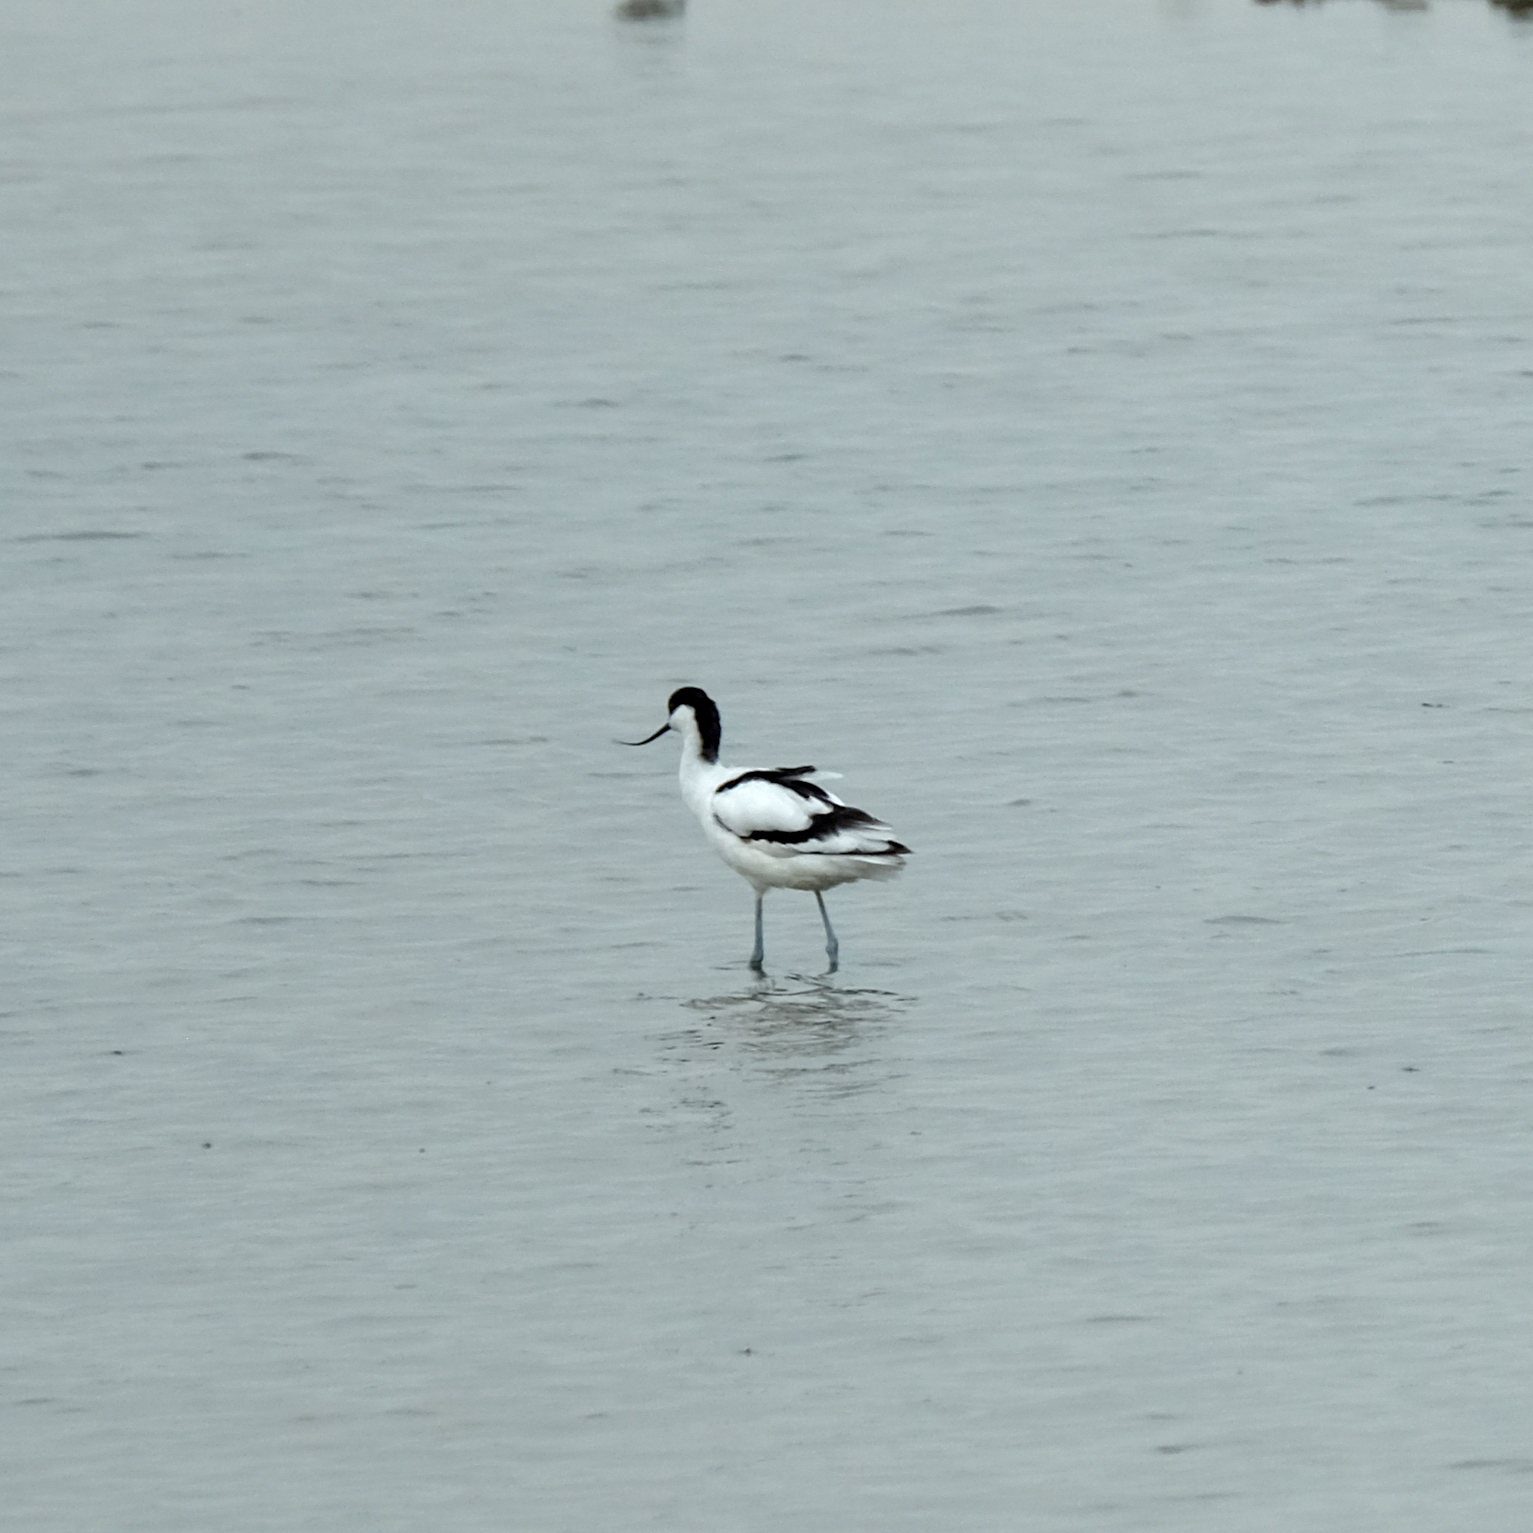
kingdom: Animalia
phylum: Chordata
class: Aves
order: Charadriiformes
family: Recurvirostridae
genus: Recurvirostra
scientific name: Recurvirostra avosetta
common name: Pied avocet
